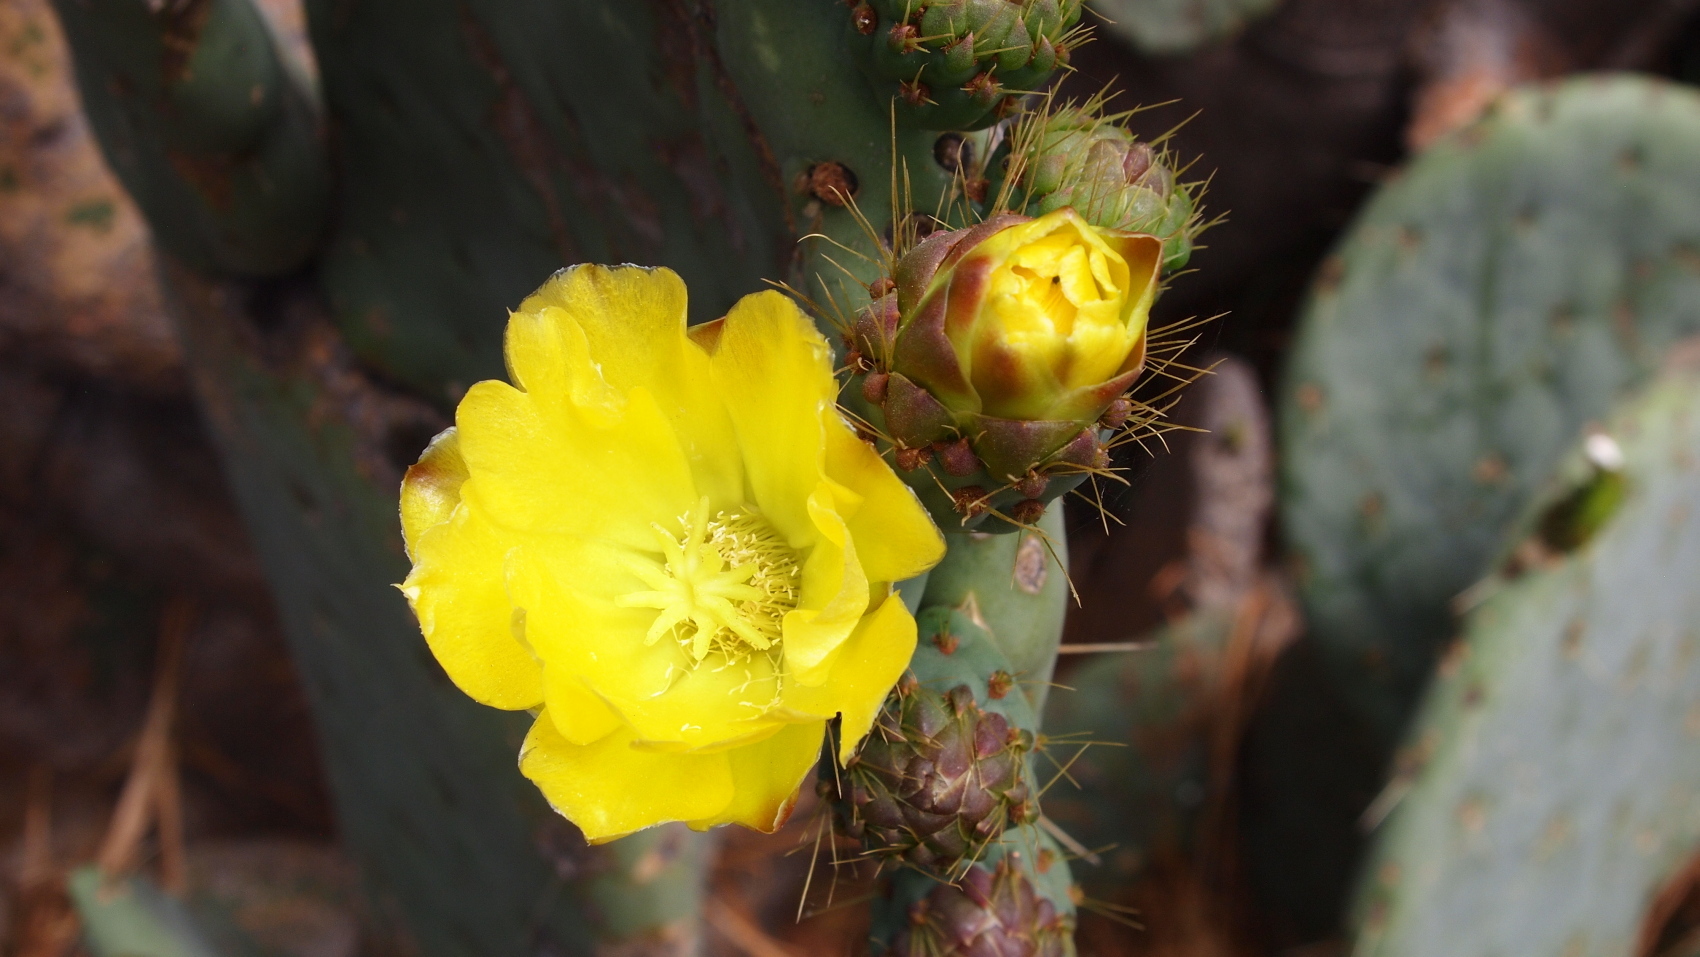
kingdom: Plantae
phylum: Tracheophyta
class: Magnoliopsida
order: Caryophyllales
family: Cactaceae
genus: Opuntia
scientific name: Opuntia robusta
